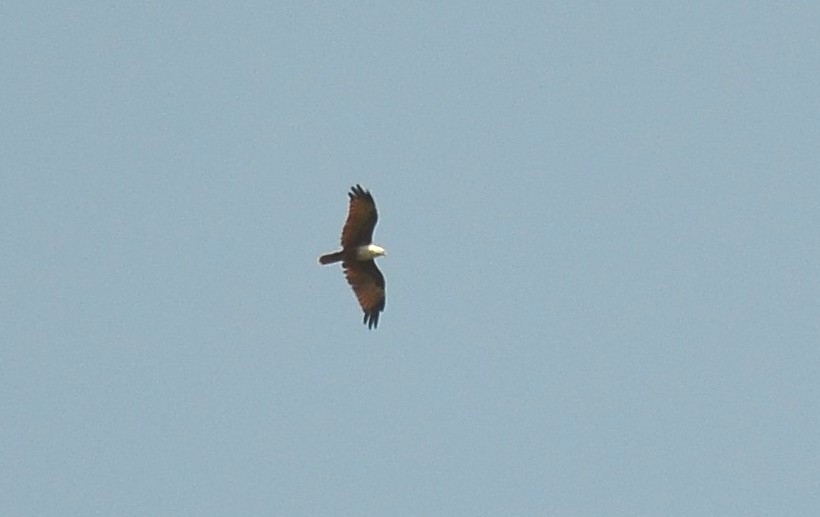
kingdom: Animalia
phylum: Chordata
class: Aves
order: Accipitriformes
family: Accipitridae
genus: Haliastur
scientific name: Haliastur indus
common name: Brahminy kite
